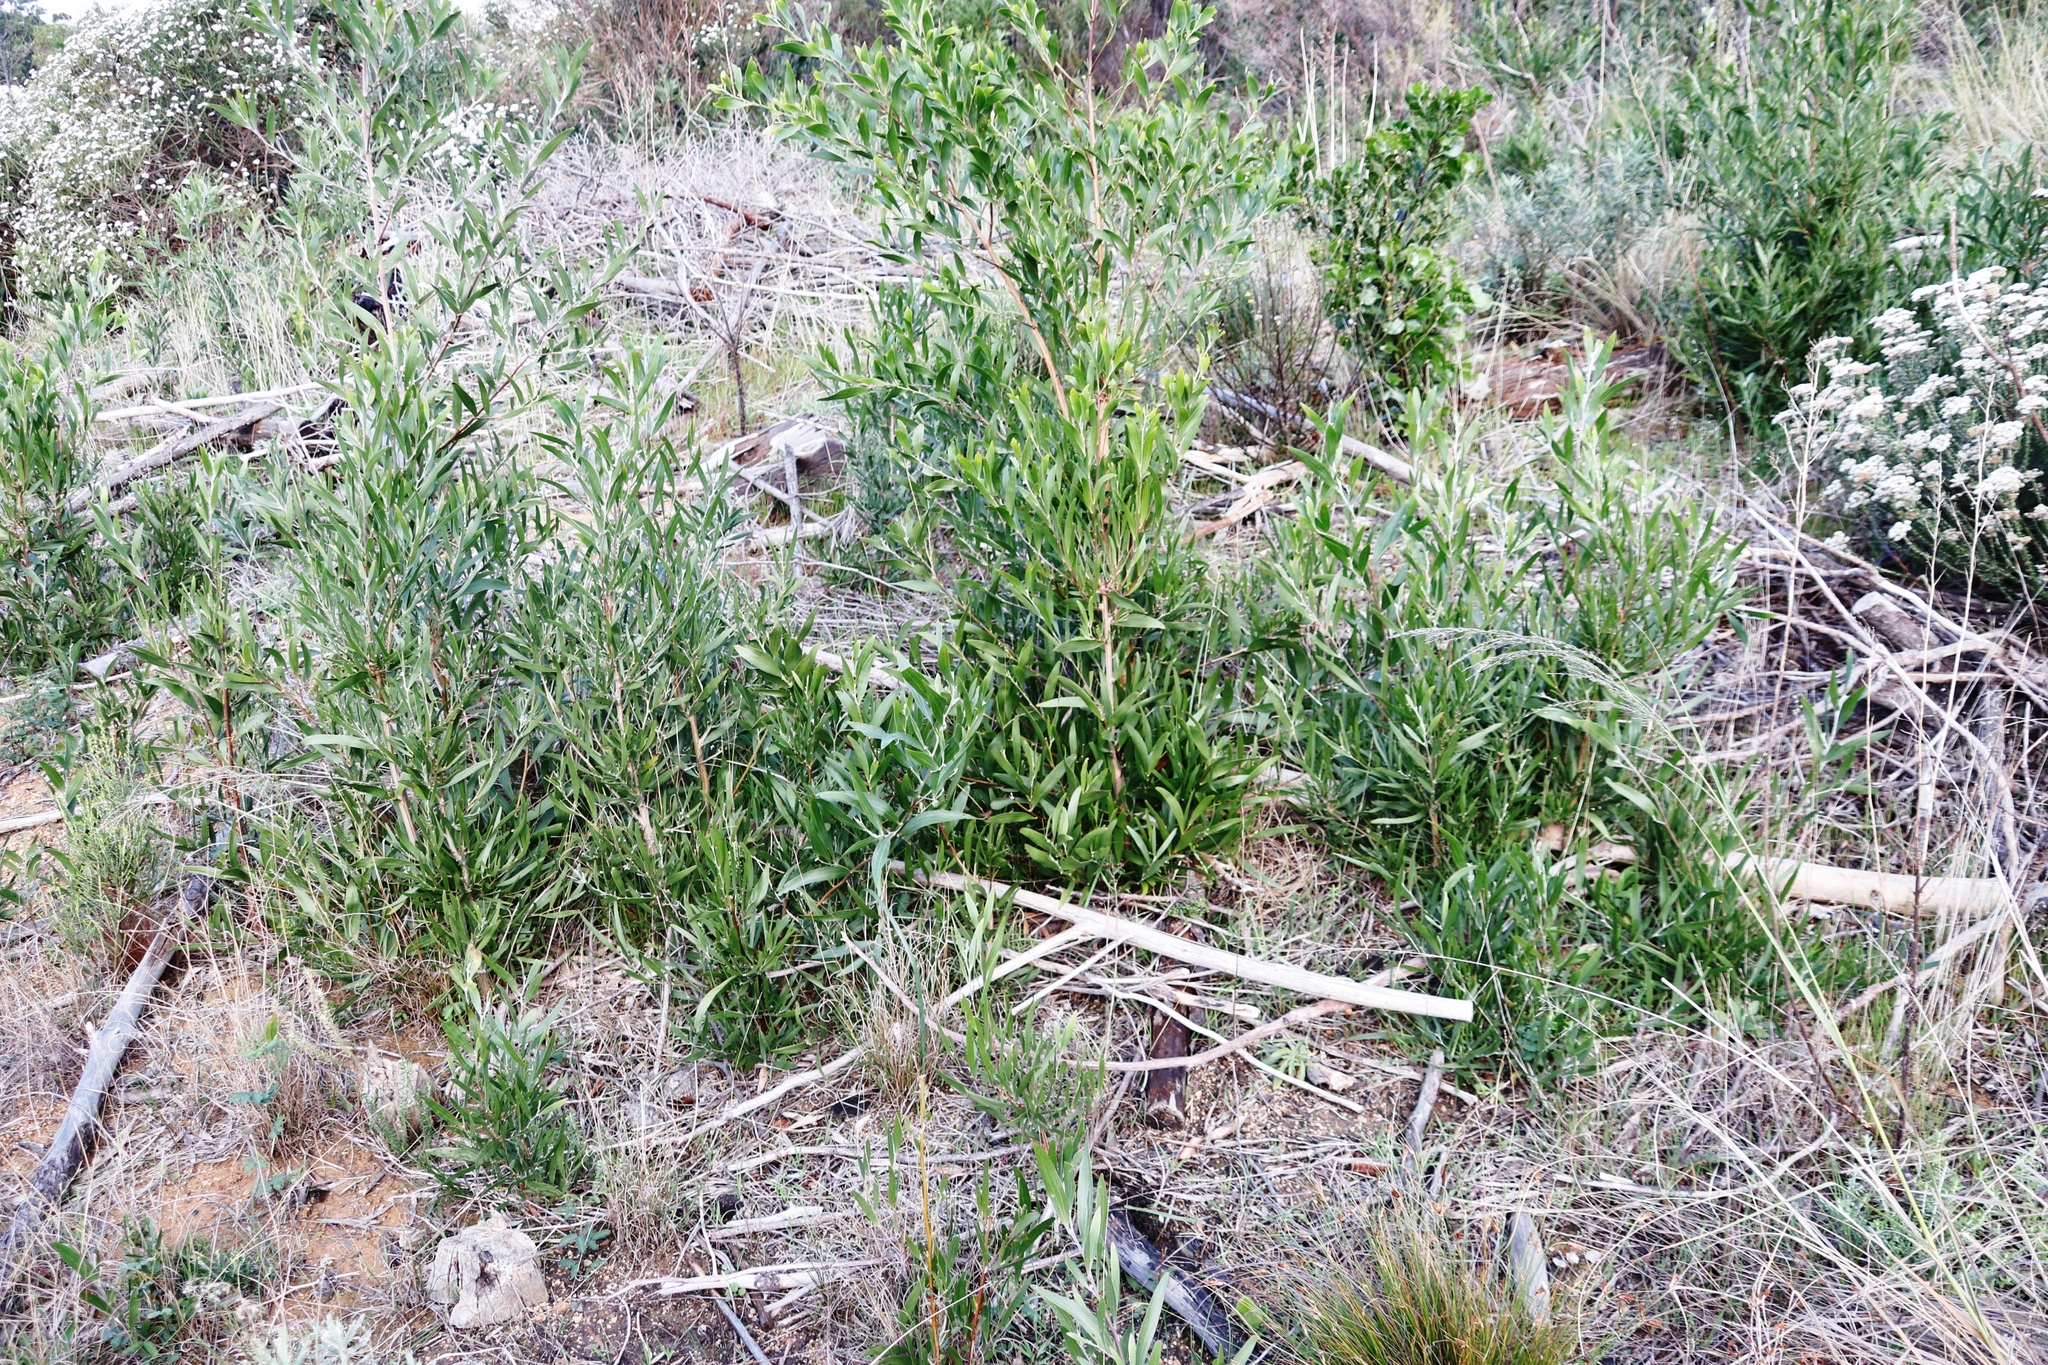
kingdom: Plantae
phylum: Tracheophyta
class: Magnoliopsida
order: Fabales
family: Fabaceae
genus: Acacia
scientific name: Acacia melanoxylon
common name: Blackwood
